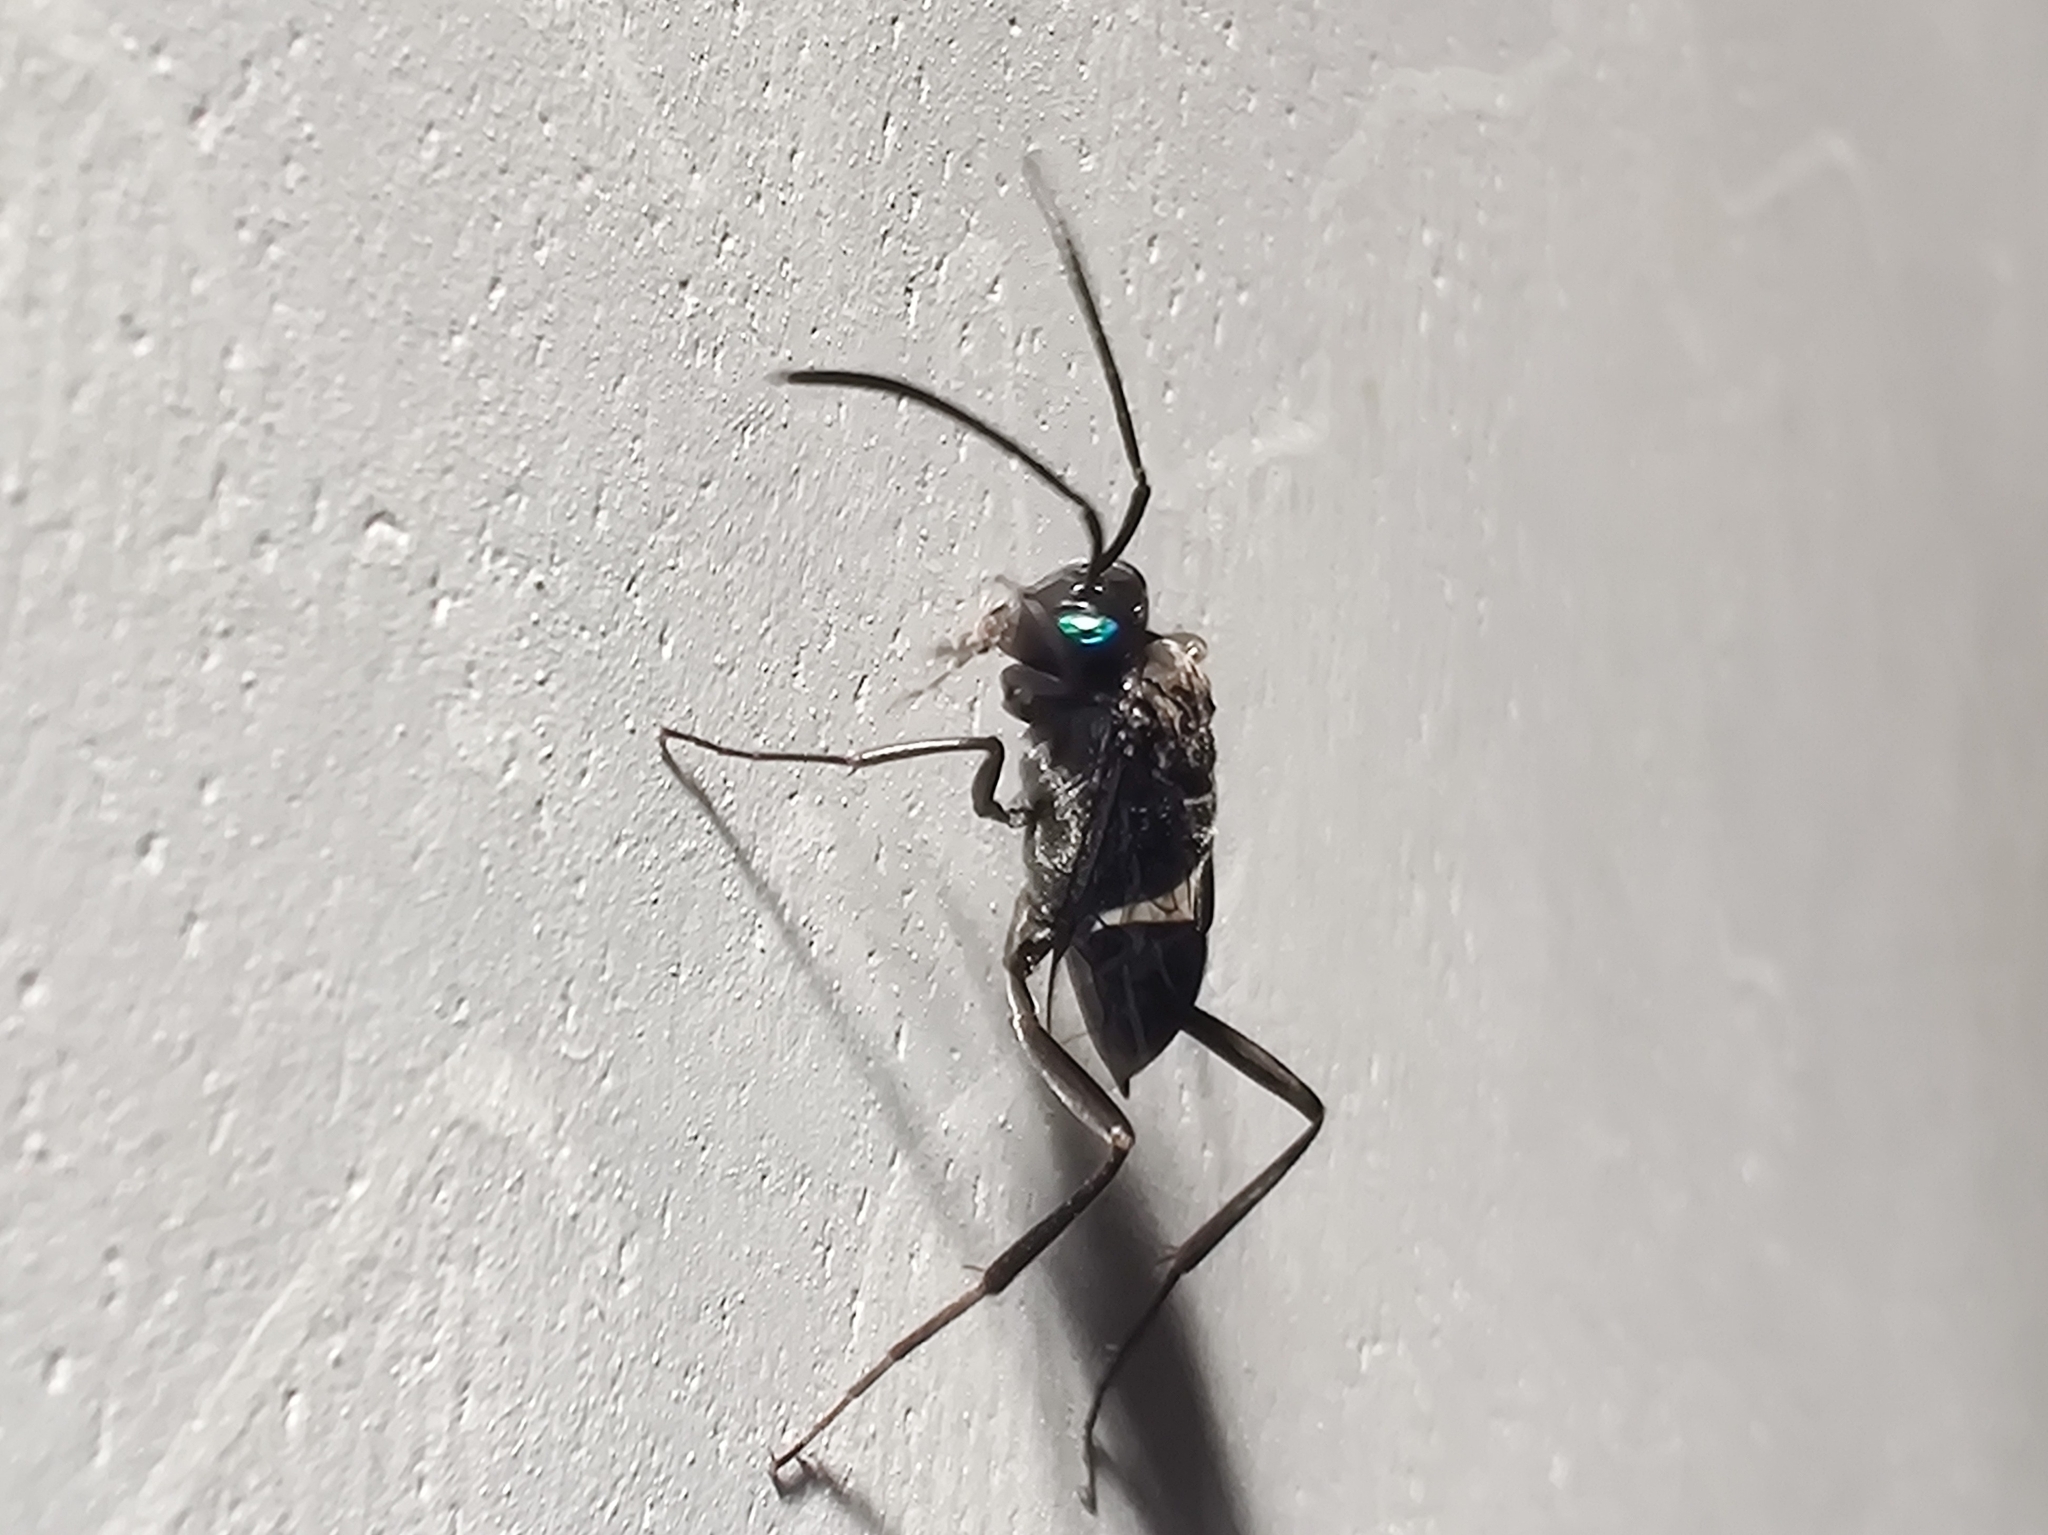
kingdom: Animalia
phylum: Arthropoda
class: Insecta
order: Hymenoptera
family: Evaniidae
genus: Evania
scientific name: Evania appendigaster
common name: Ensign wasp
